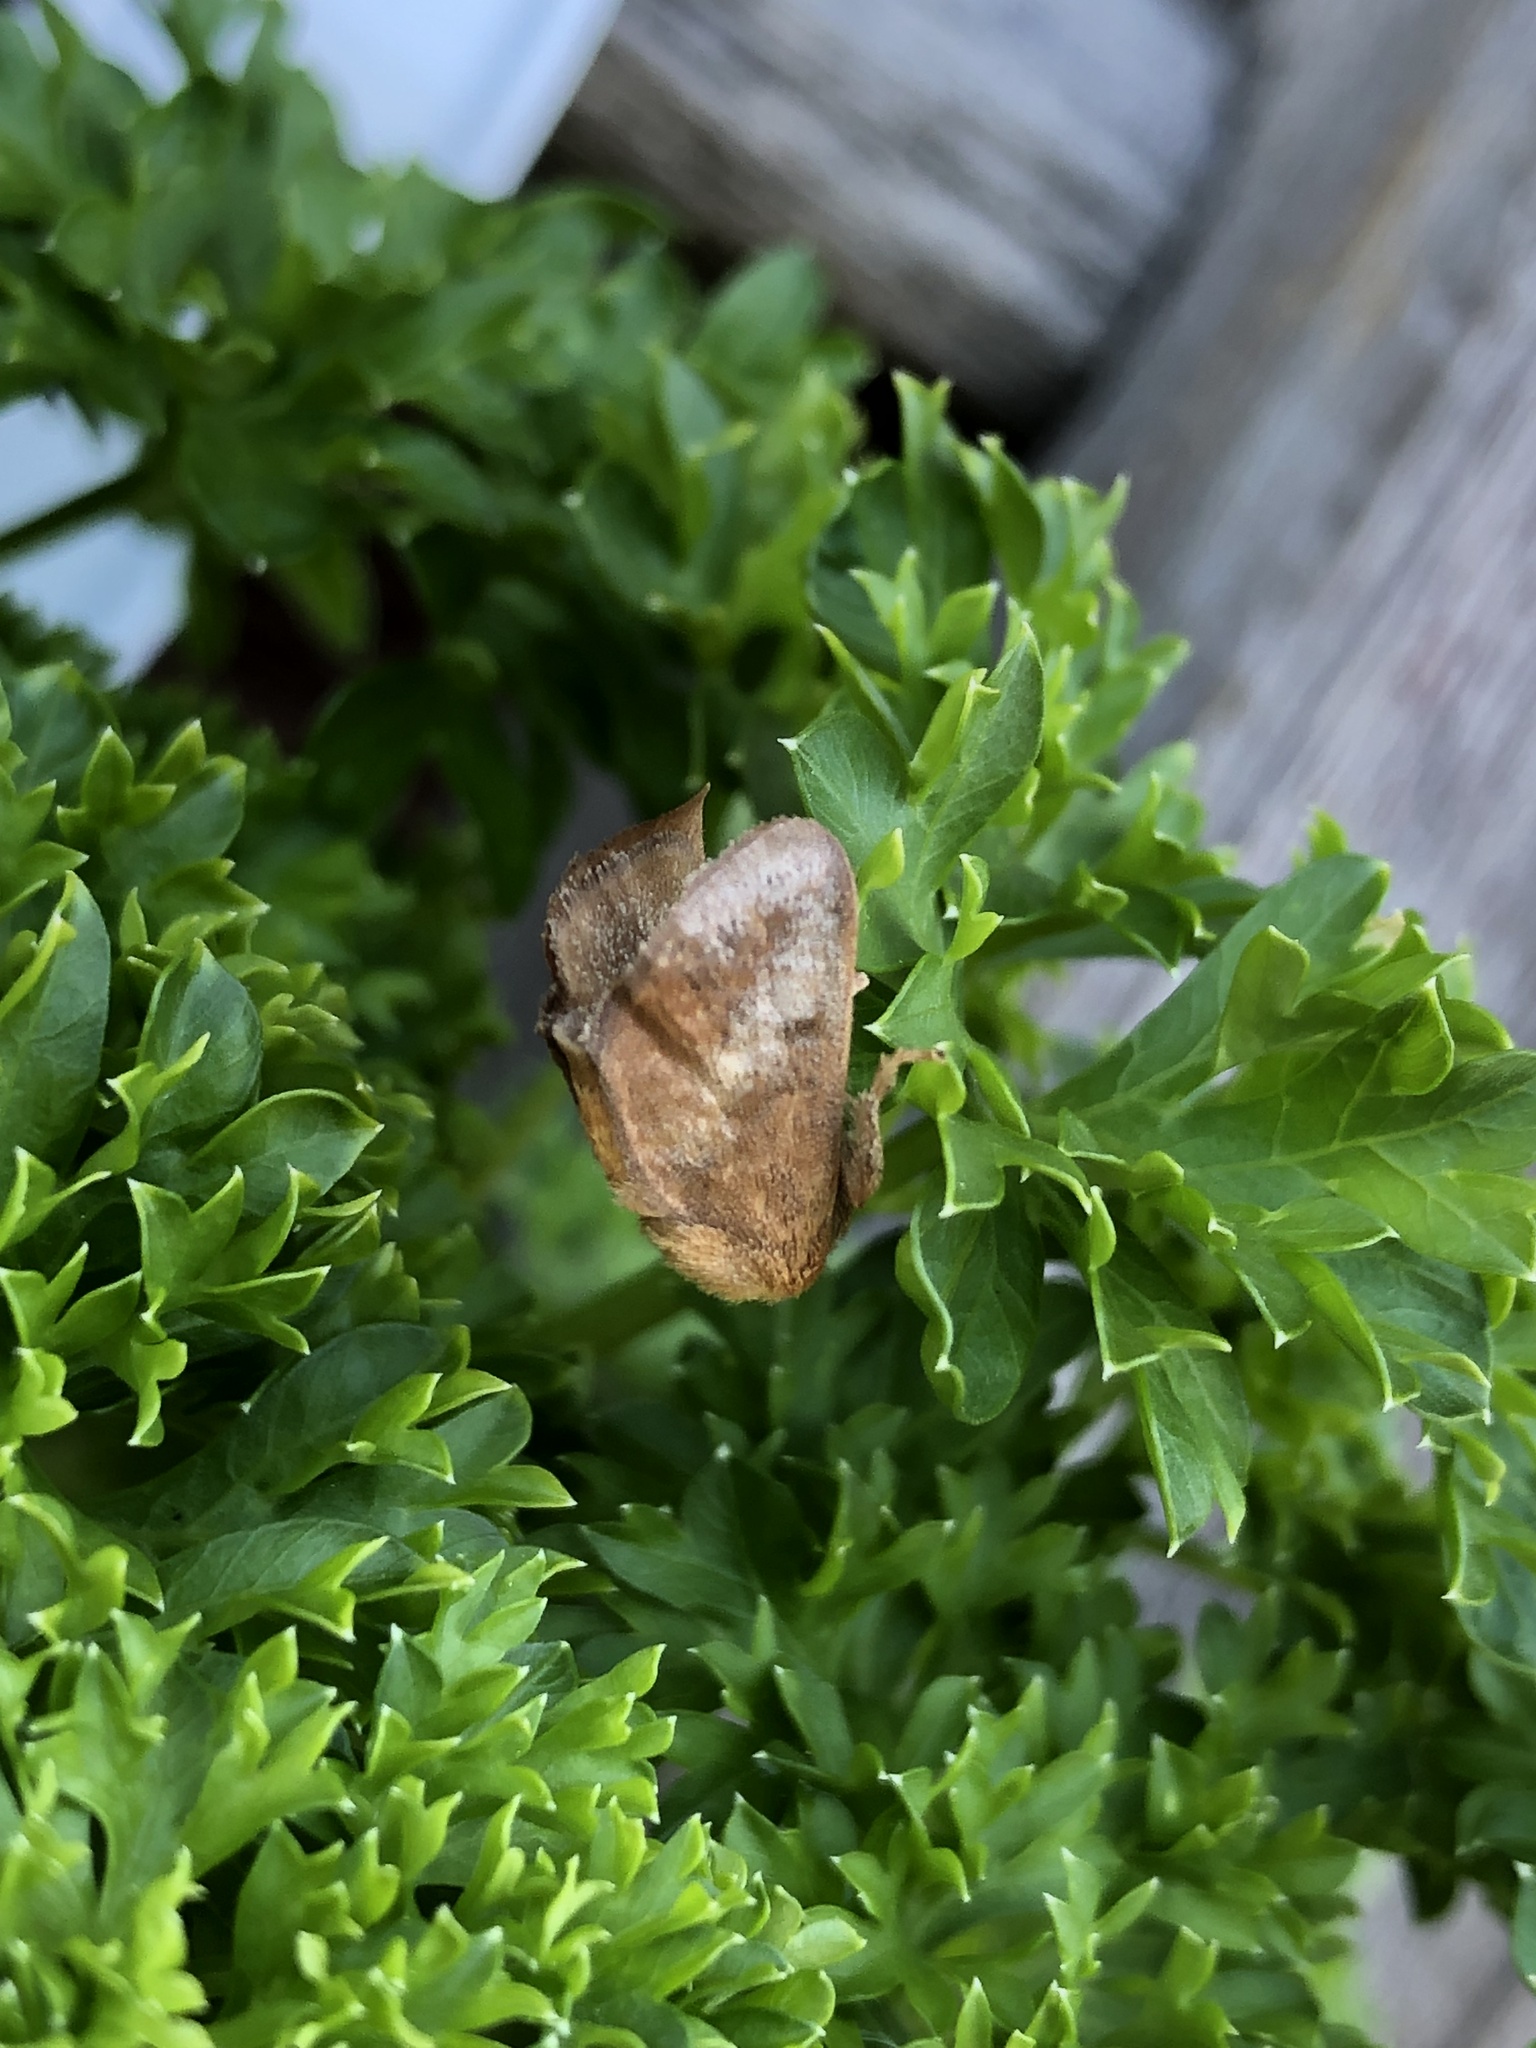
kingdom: Animalia
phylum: Arthropoda
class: Insecta
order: Lepidoptera
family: Limacodidae
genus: Isa
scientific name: Isa textula
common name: Crowned slug moth
